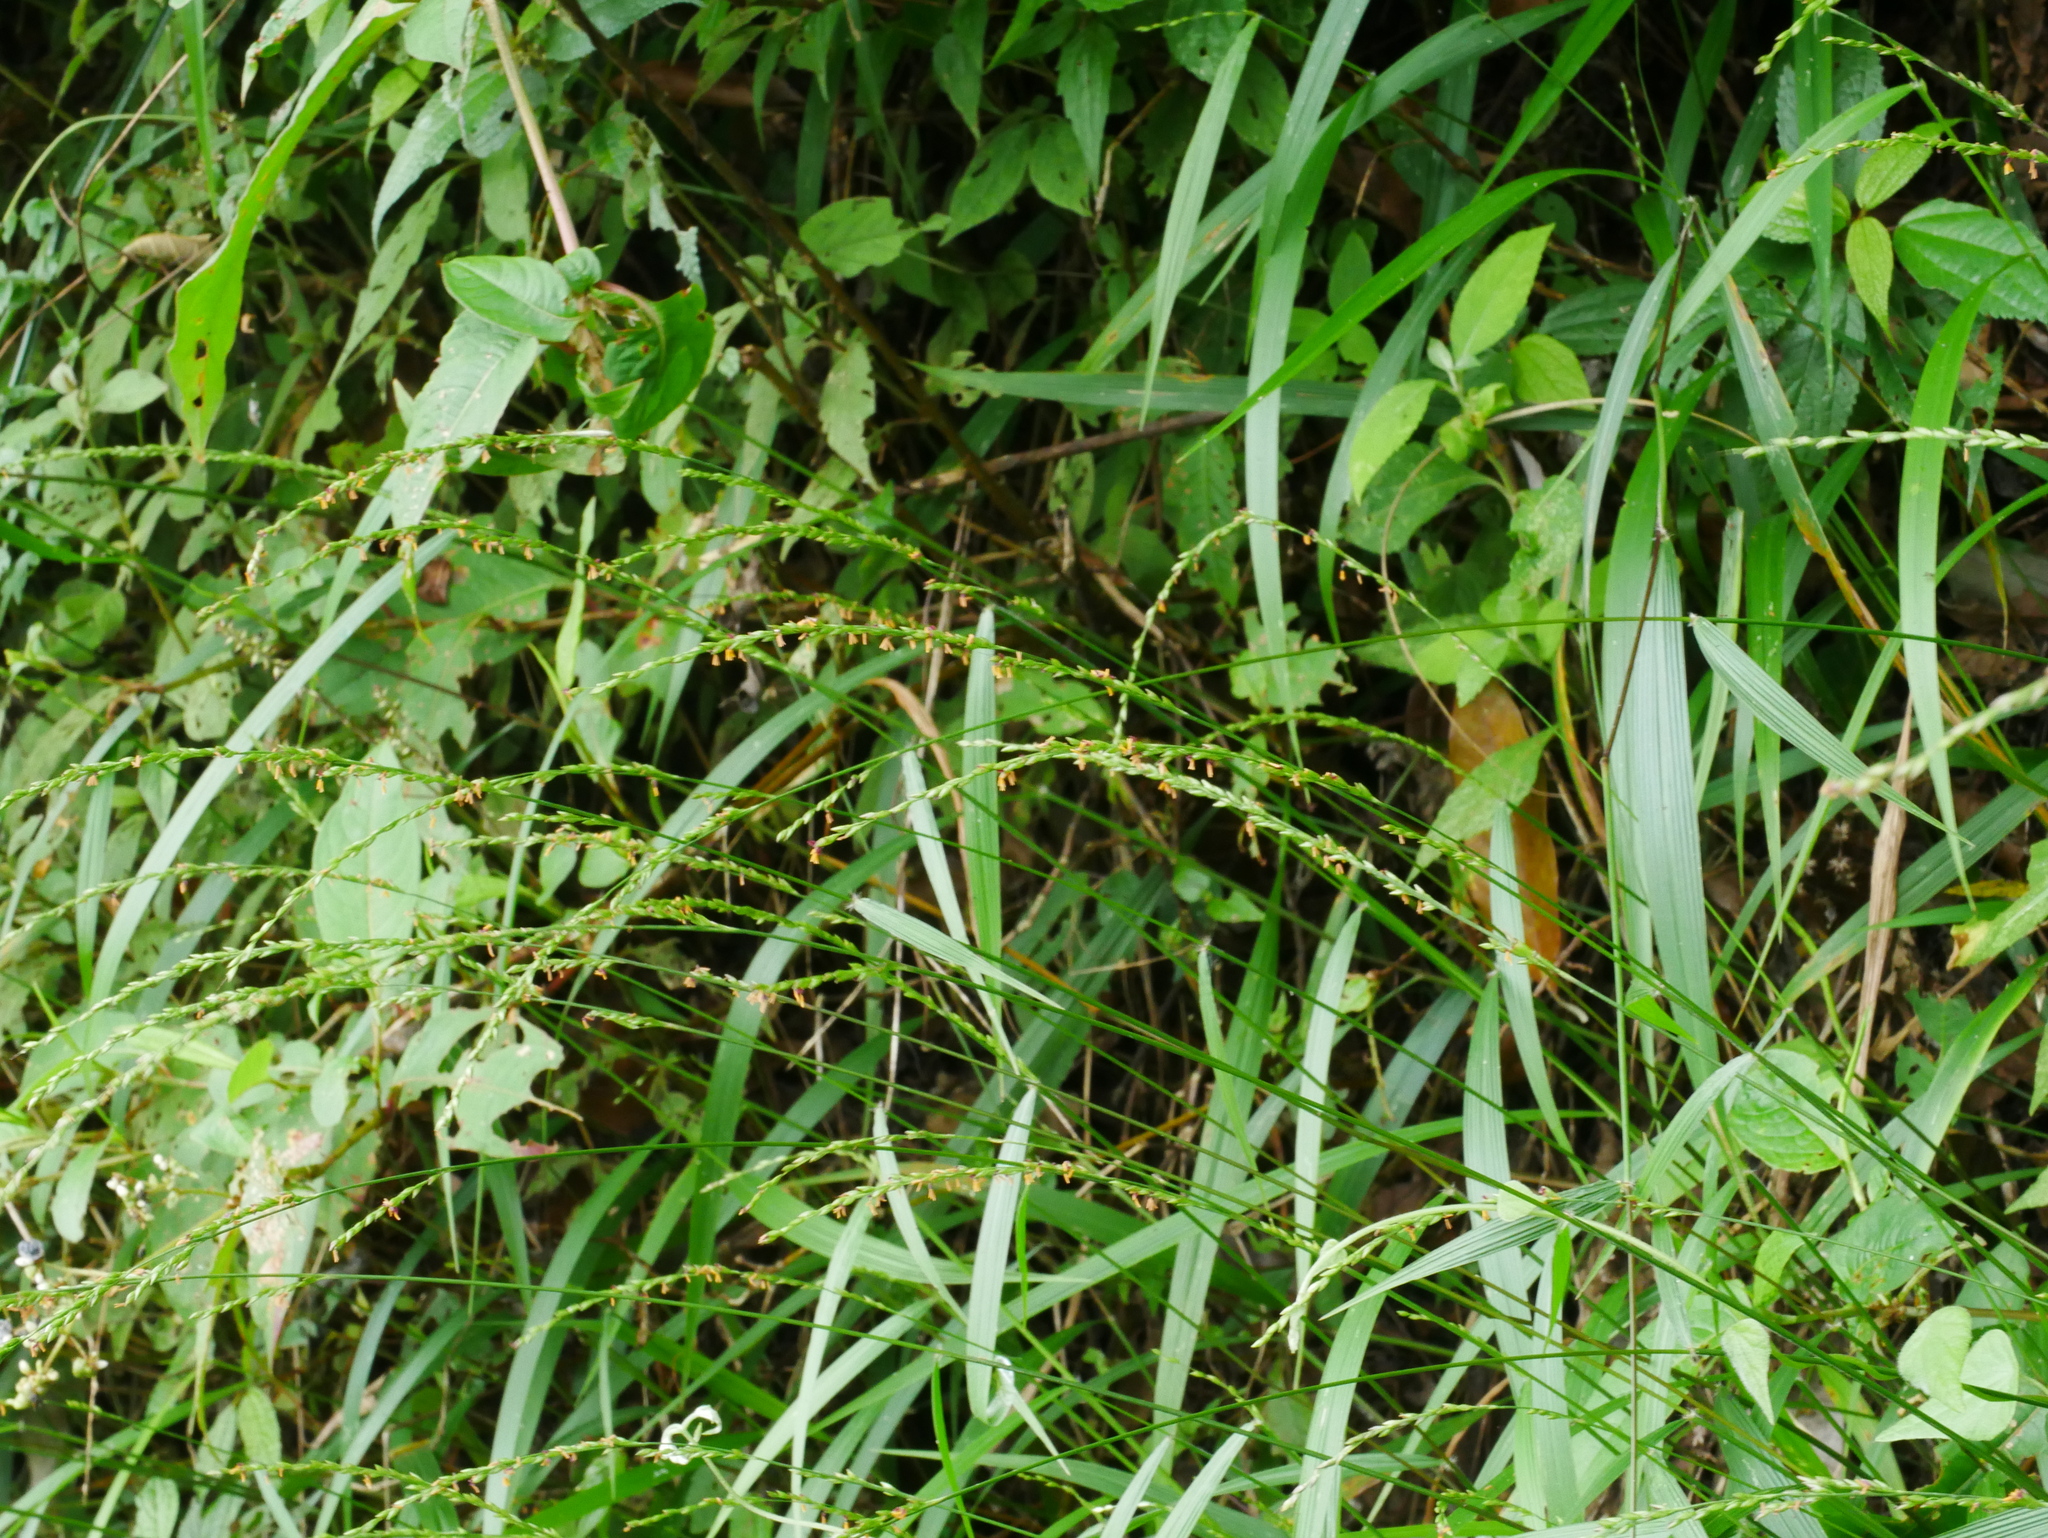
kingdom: Plantae
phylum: Tracheophyta
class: Liliopsida
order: Poales
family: Poaceae
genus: Setaria
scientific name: Setaria plicata
